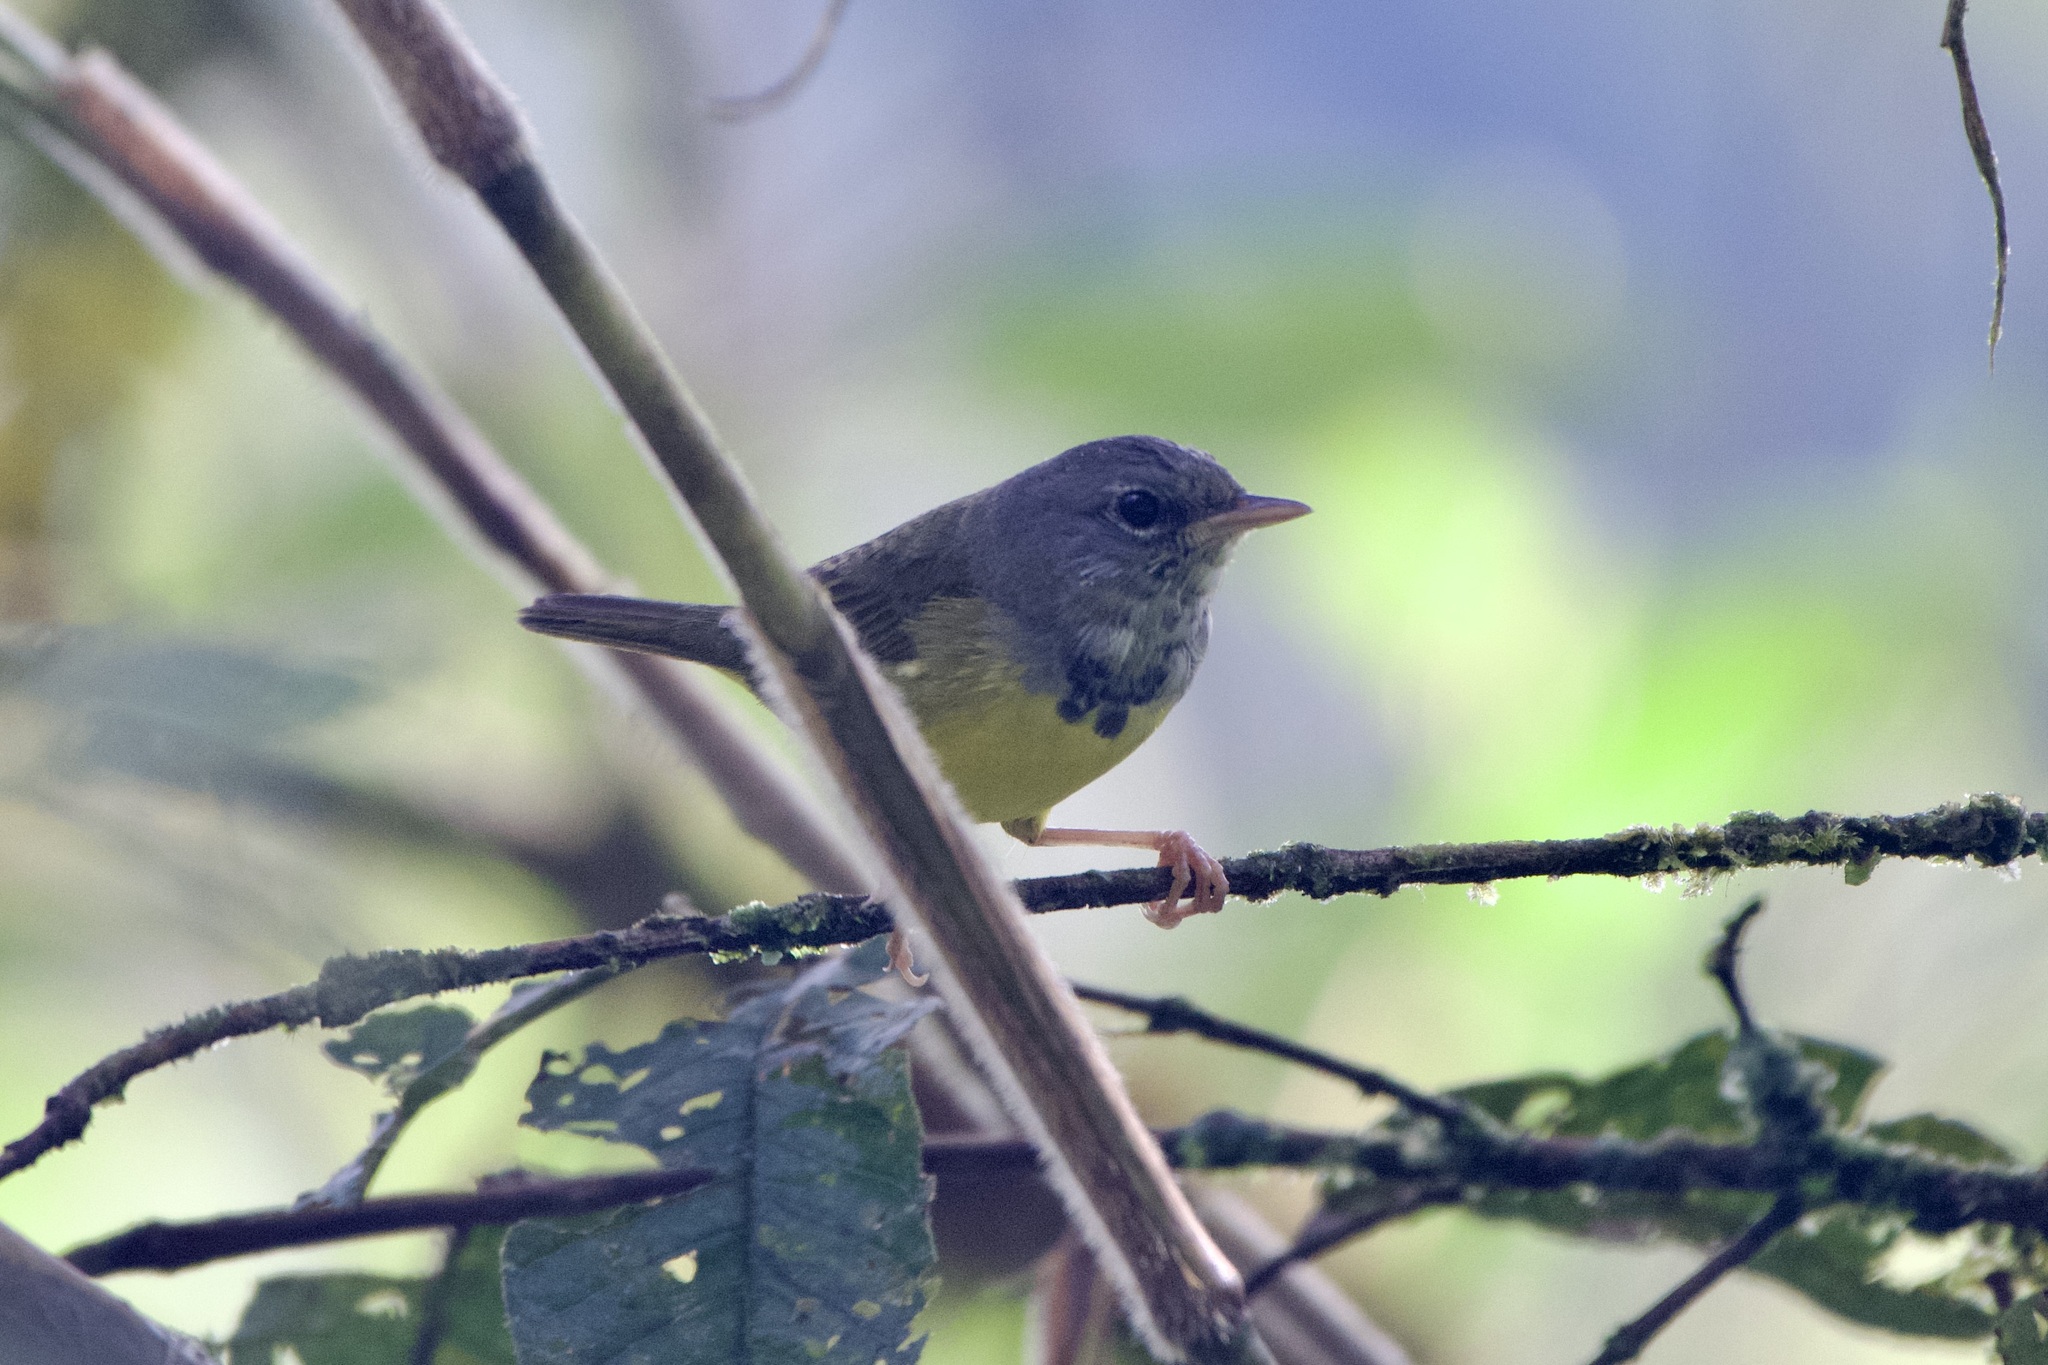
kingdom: Animalia
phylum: Chordata
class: Aves
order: Passeriformes
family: Parulidae
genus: Geothlypis
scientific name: Geothlypis philadelphia
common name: Mourning warbler
